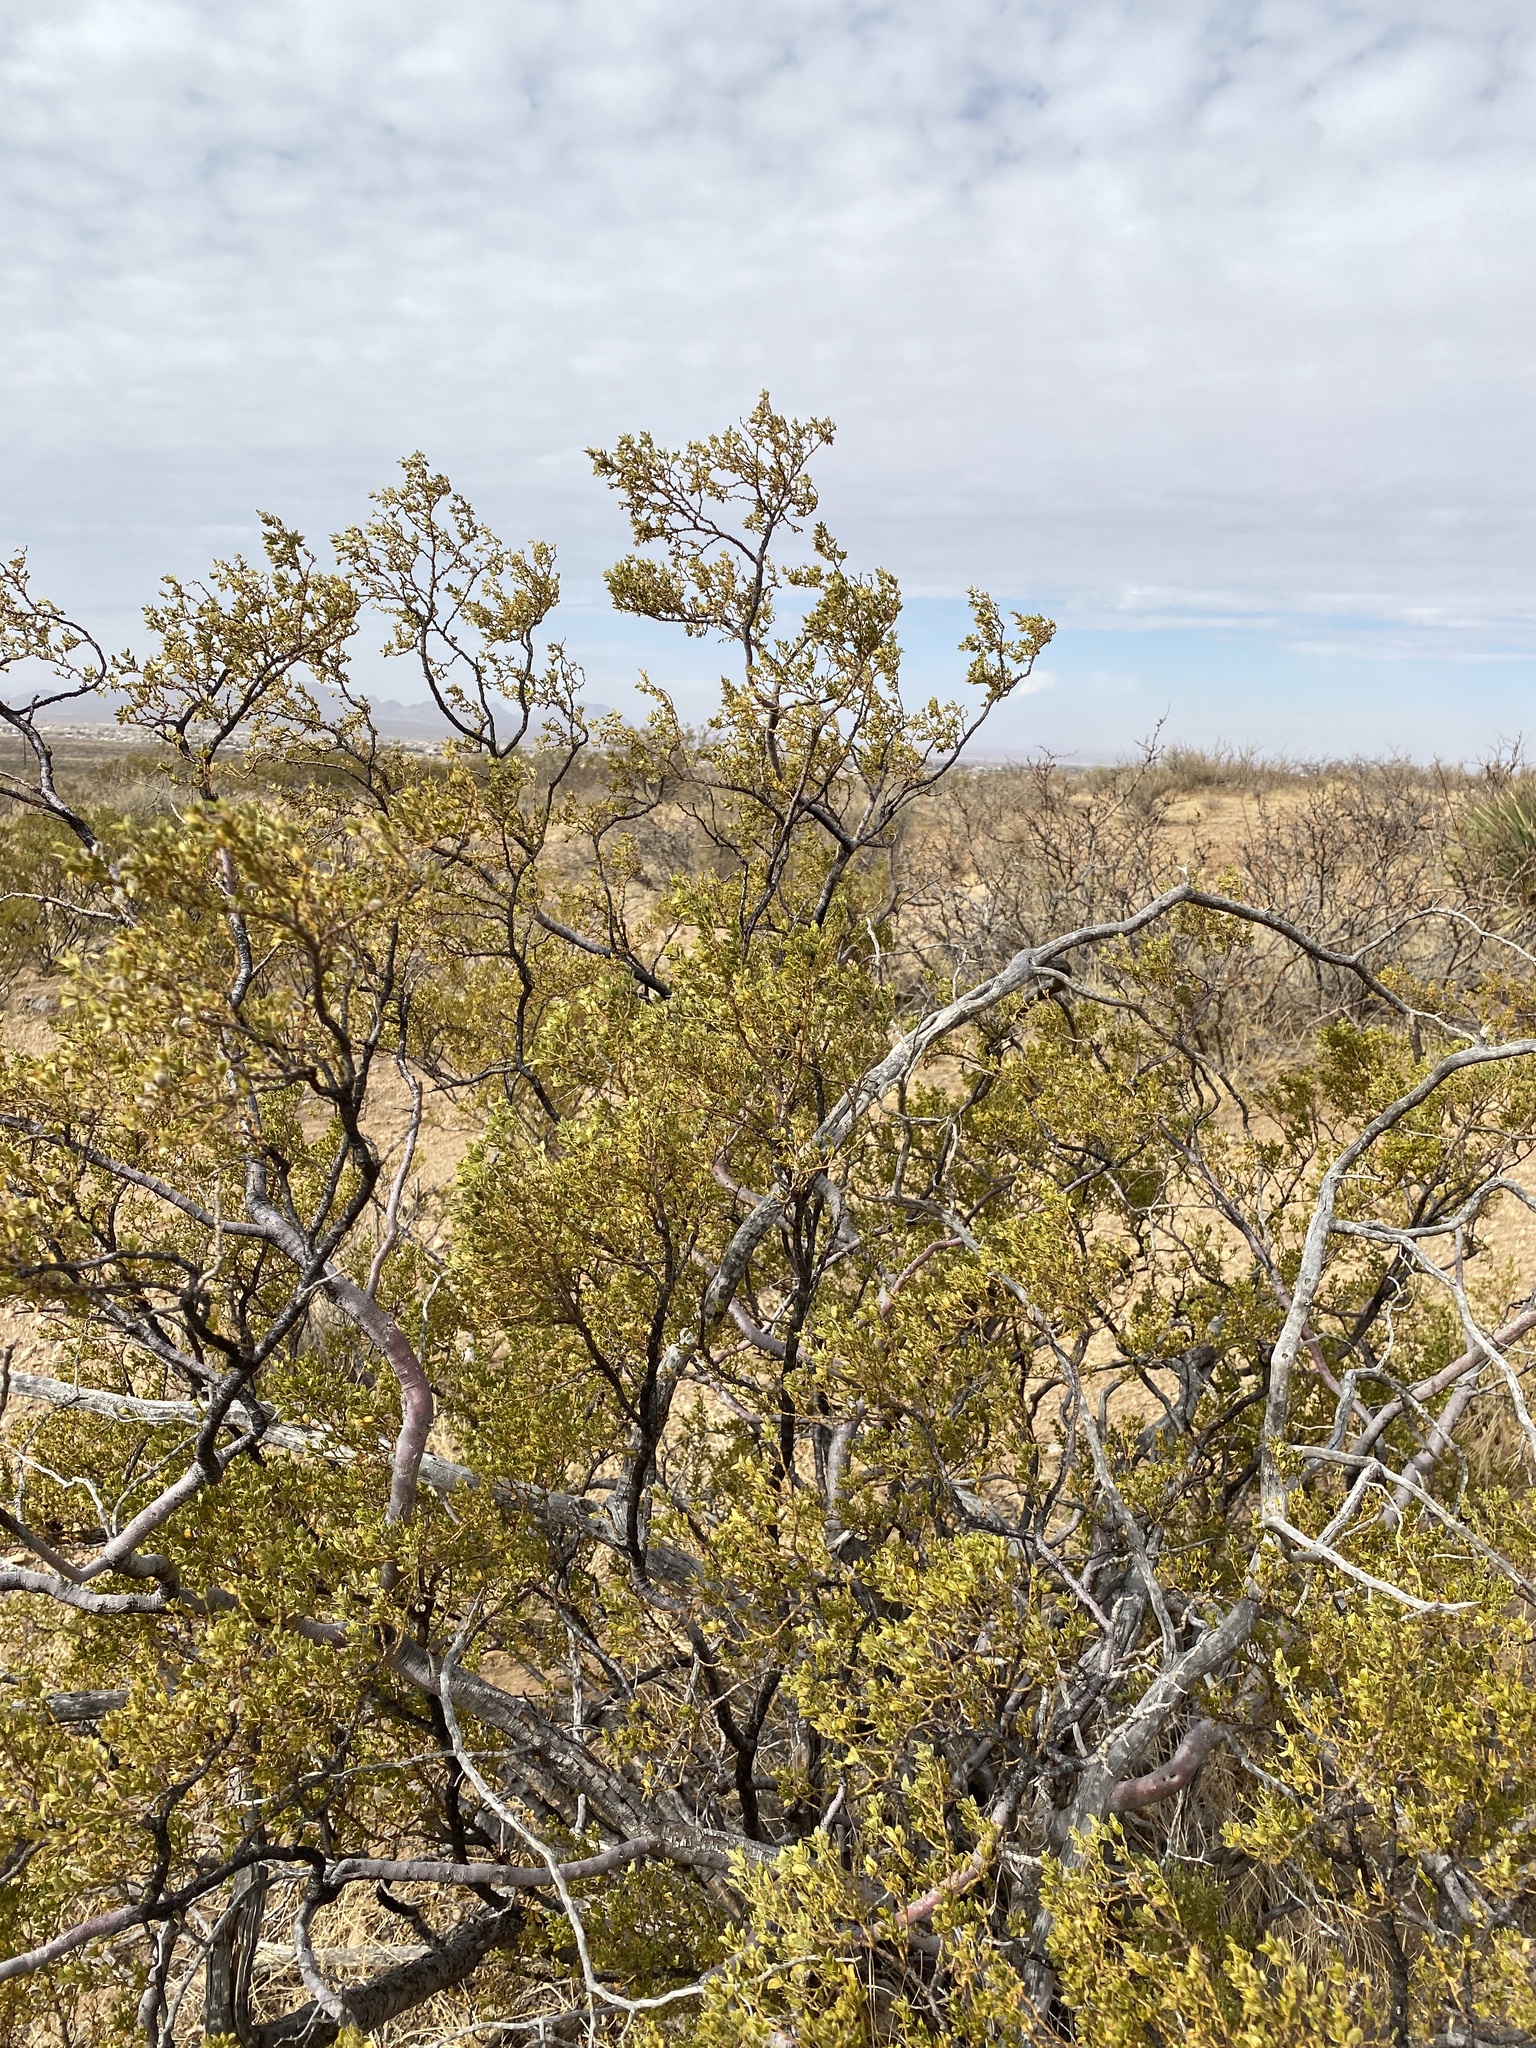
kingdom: Plantae
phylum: Tracheophyta
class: Magnoliopsida
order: Zygophyllales
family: Zygophyllaceae
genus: Larrea
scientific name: Larrea tridentata
